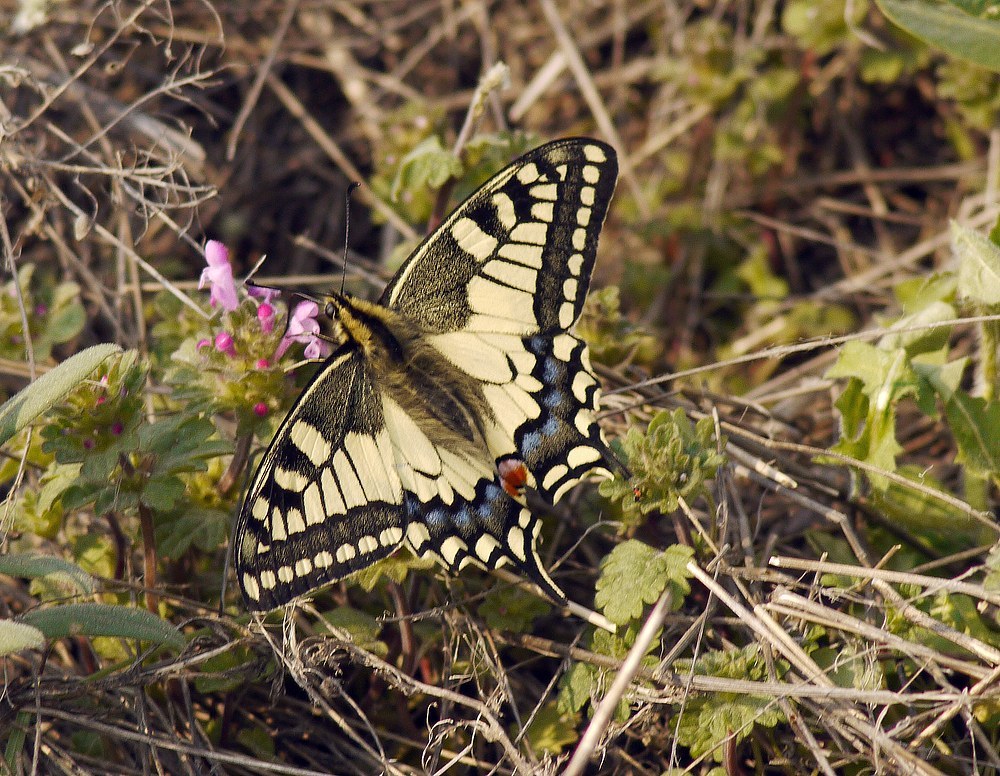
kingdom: Animalia
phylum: Arthropoda
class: Insecta
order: Lepidoptera
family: Papilionidae
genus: Papilio
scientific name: Papilio machaon
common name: Swallowtail
